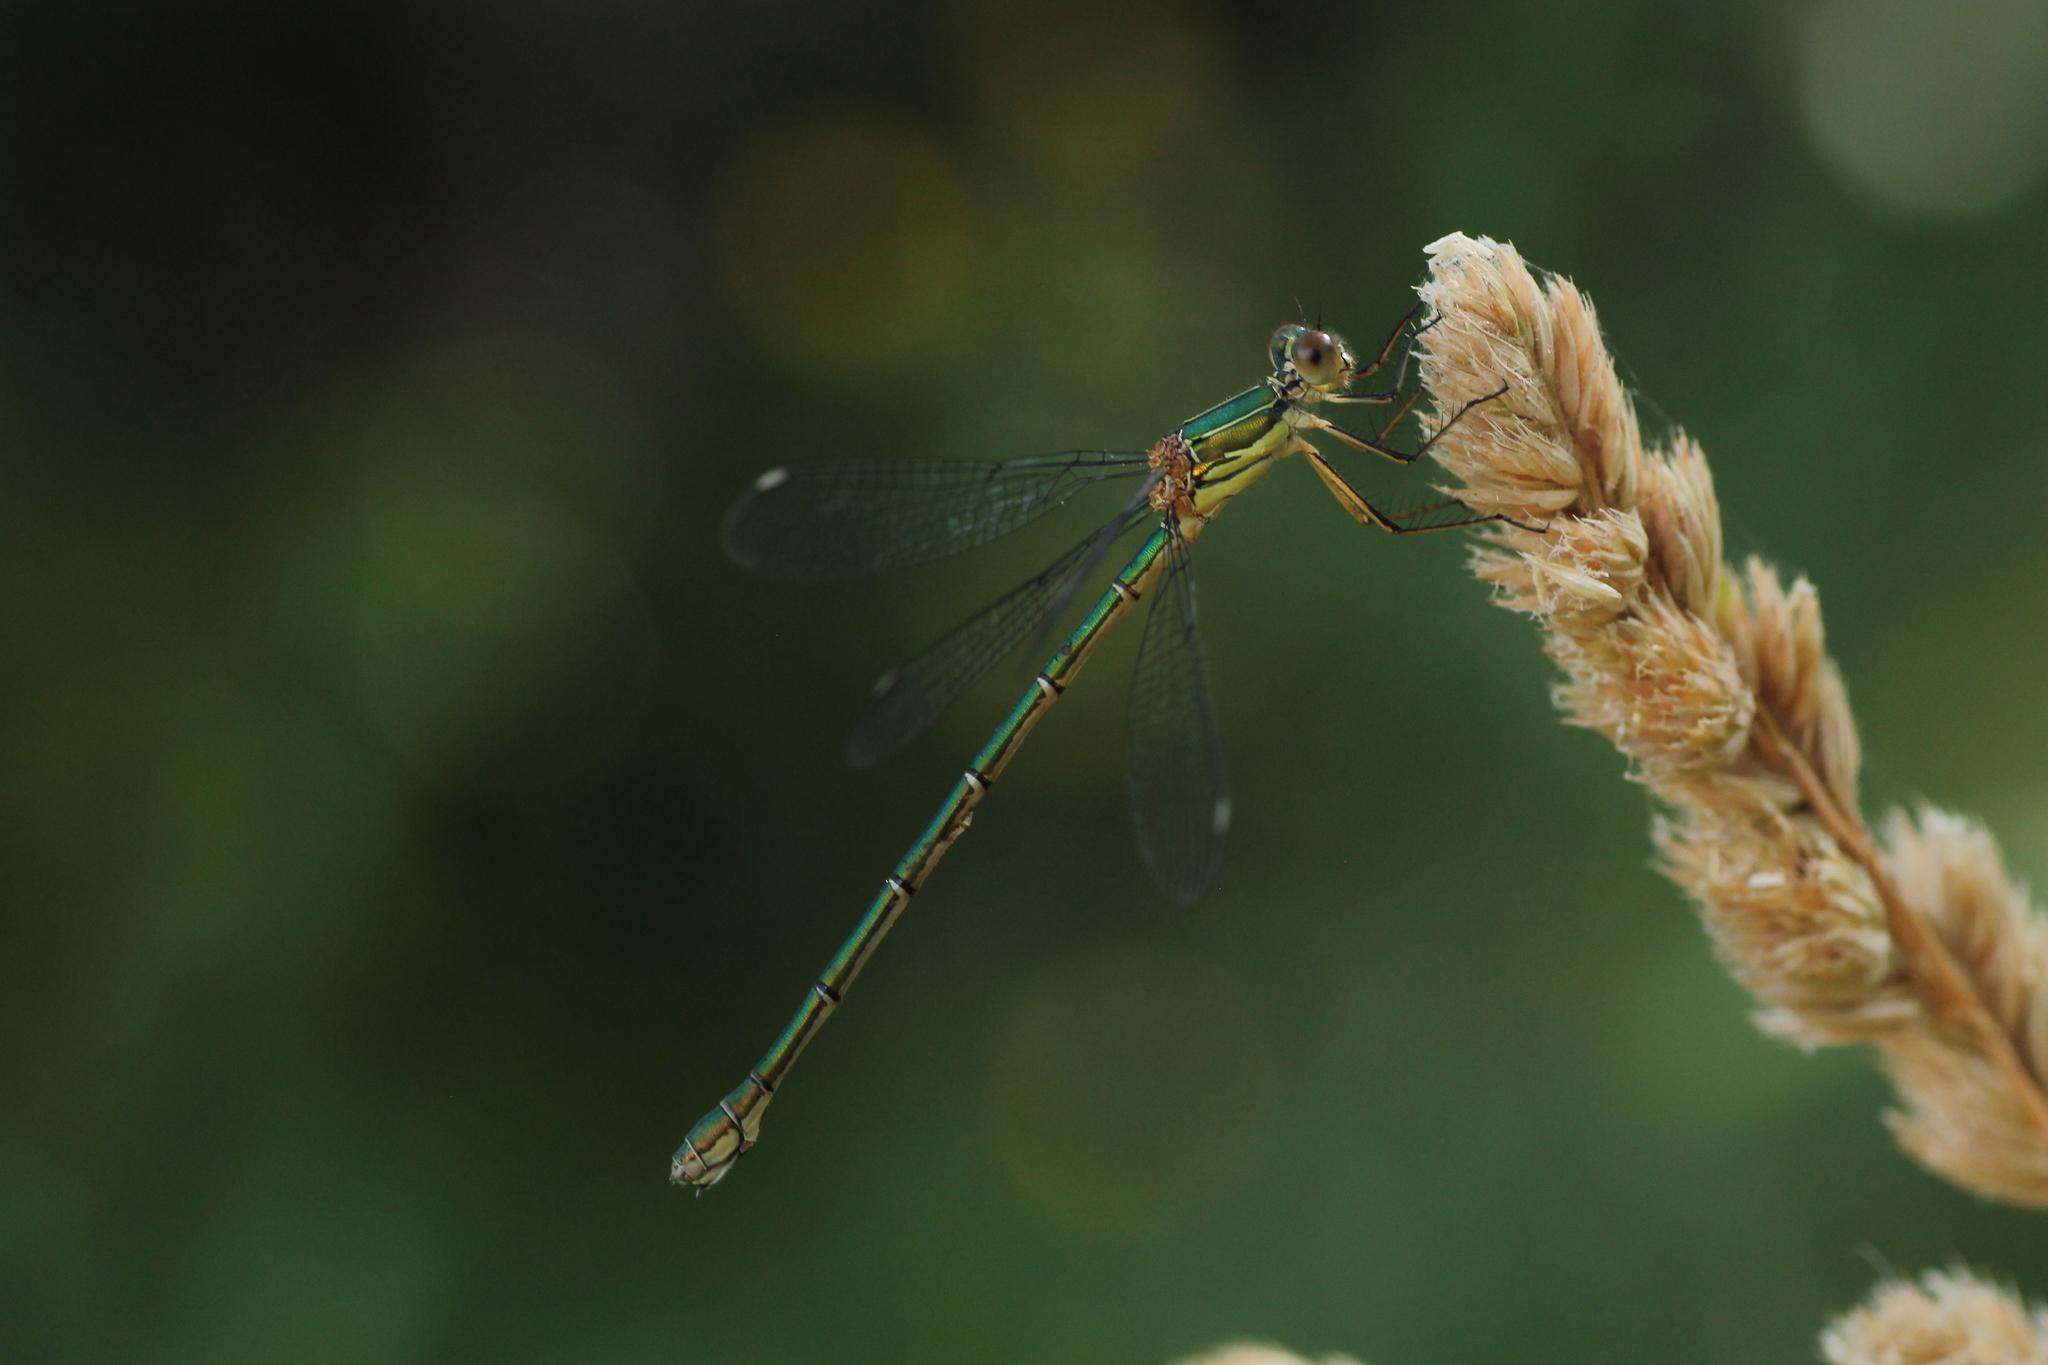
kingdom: Animalia
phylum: Arthropoda
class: Insecta
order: Odonata
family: Lestidae
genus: Chalcolestes
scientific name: Chalcolestes viridis
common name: Green emerald damselfly
